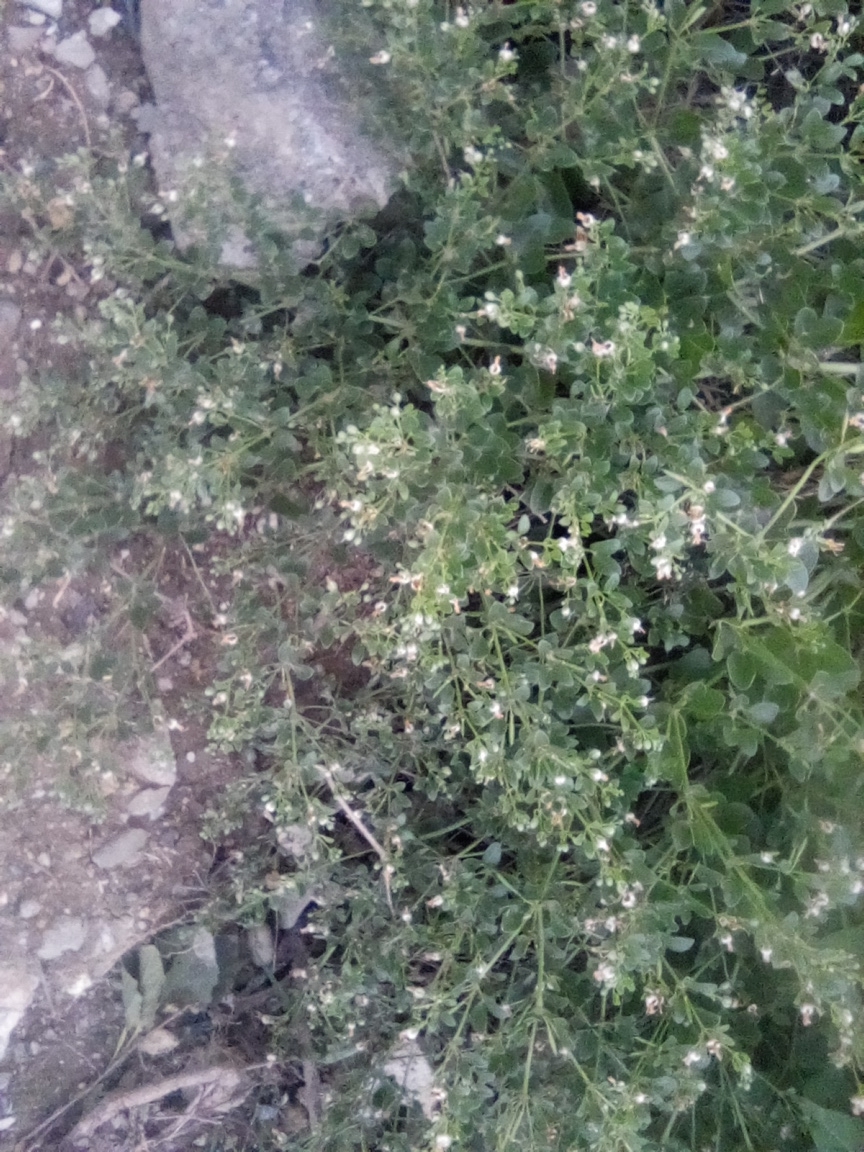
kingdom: Plantae
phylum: Tracheophyta
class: Magnoliopsida
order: Zygophyllales
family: Zygophyllaceae
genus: Zygophyllum
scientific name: Zygophyllum fabago
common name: Syrian beancaper
